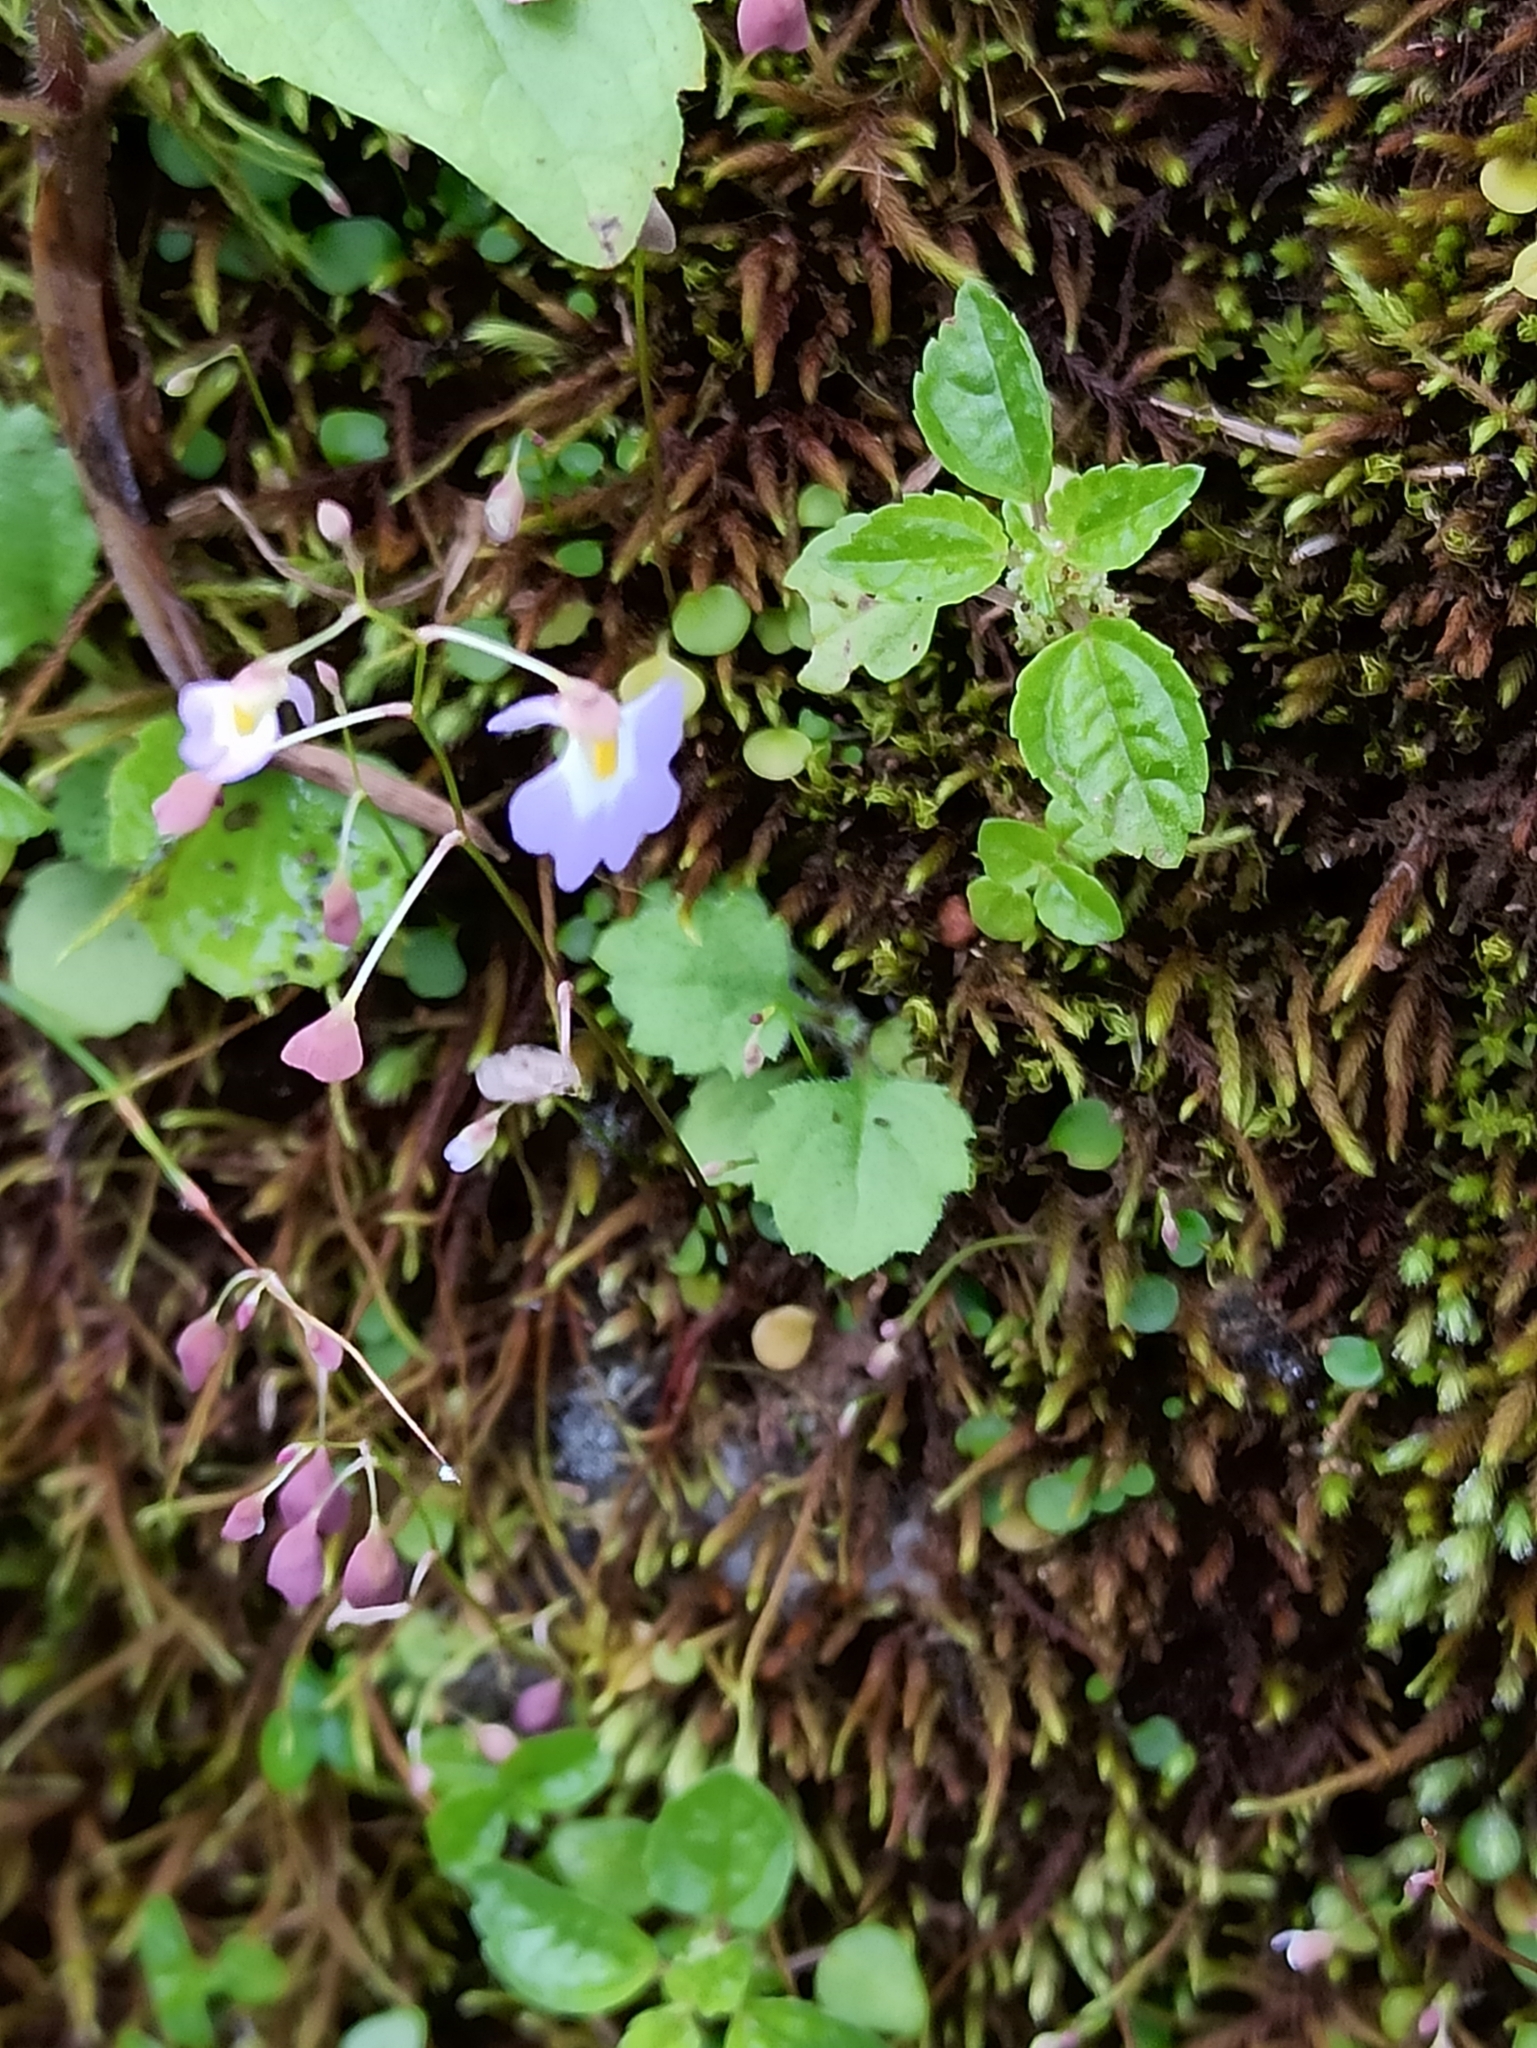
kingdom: Plantae
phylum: Tracheophyta
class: Magnoliopsida
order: Lamiales
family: Lentibulariaceae
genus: Utricularia
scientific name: Utricularia striatula
